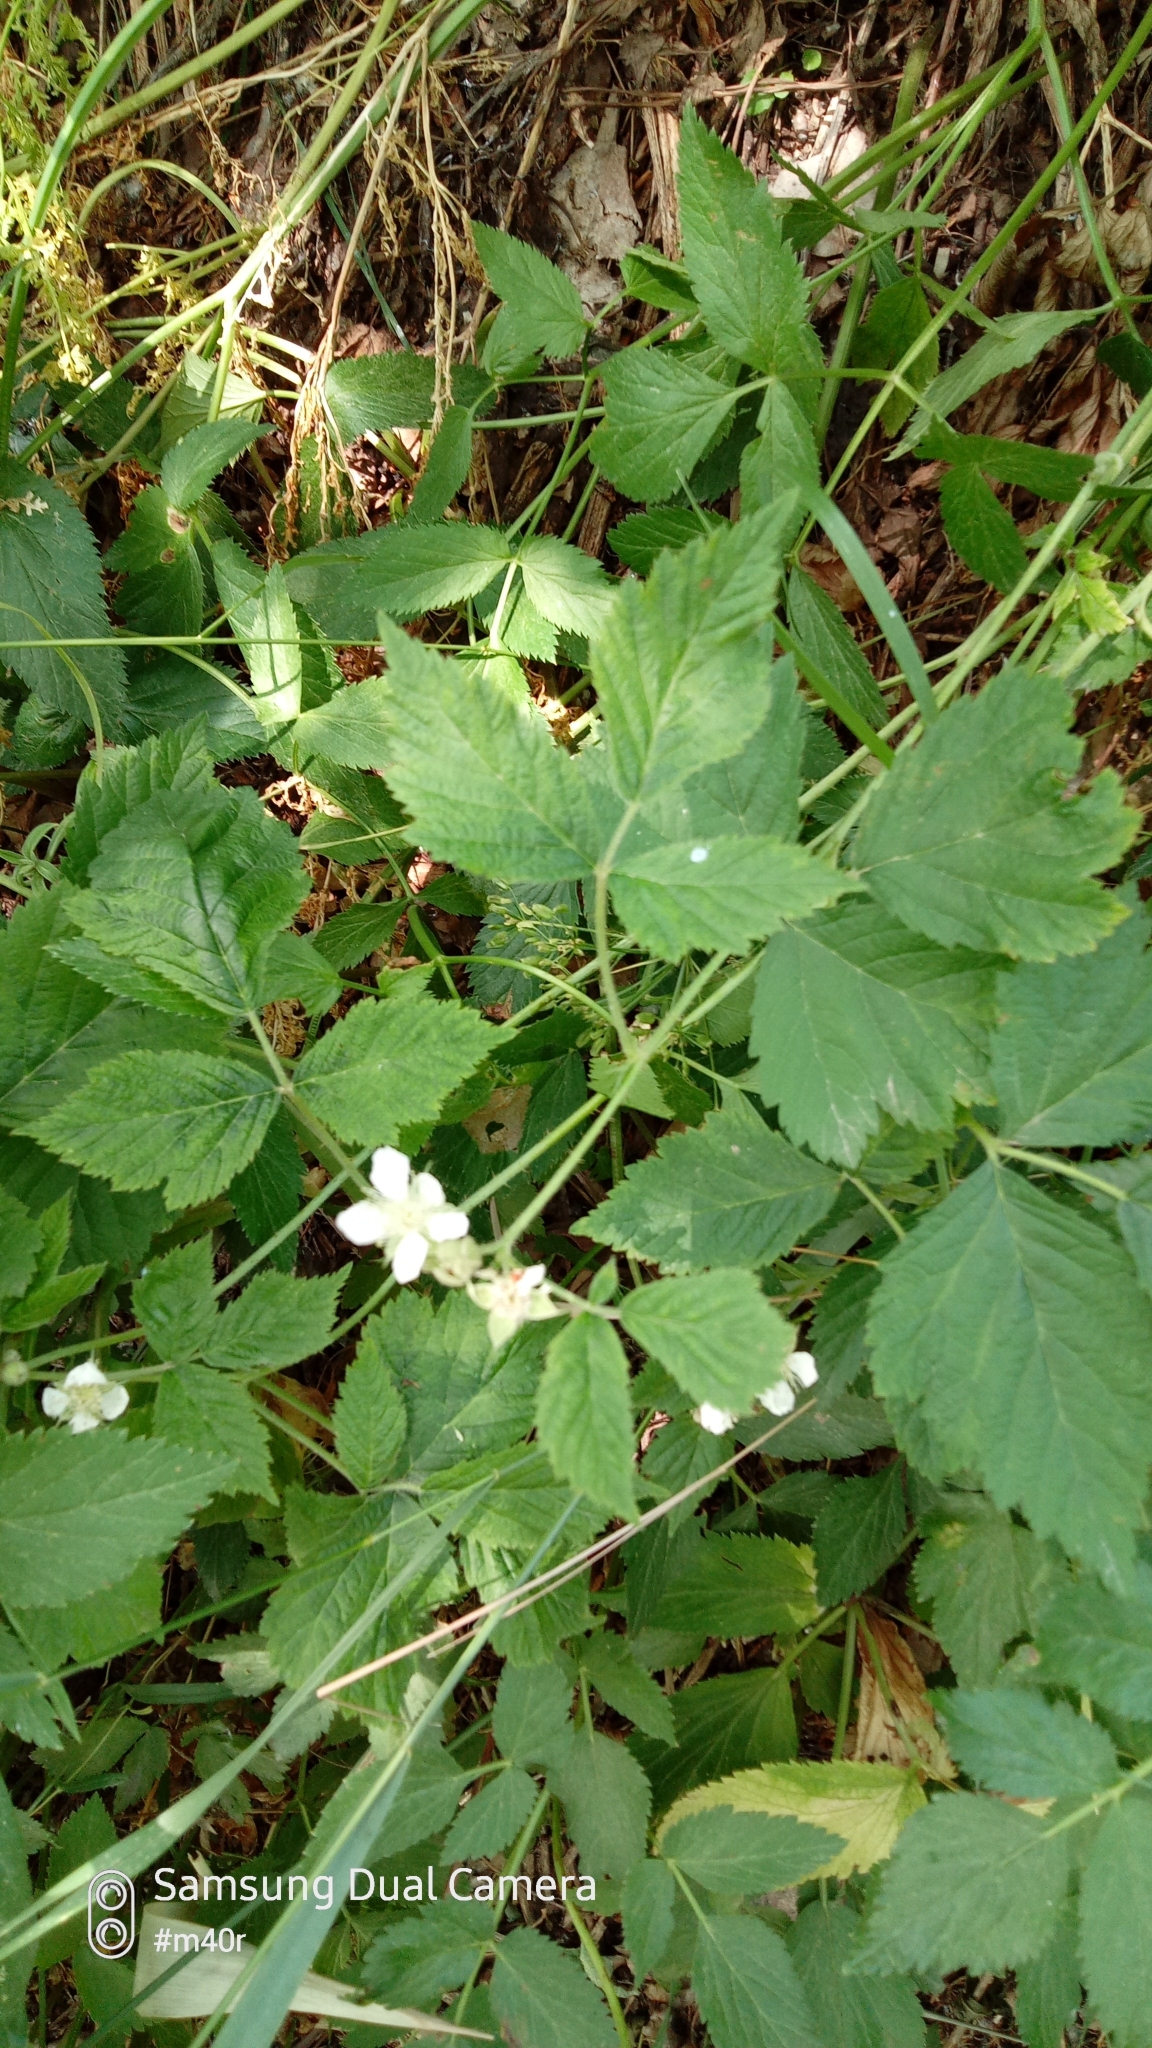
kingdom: Plantae
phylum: Tracheophyta
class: Magnoliopsida
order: Rosales
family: Rosaceae
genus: Rubus
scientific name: Rubus caesius
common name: Dewberry
